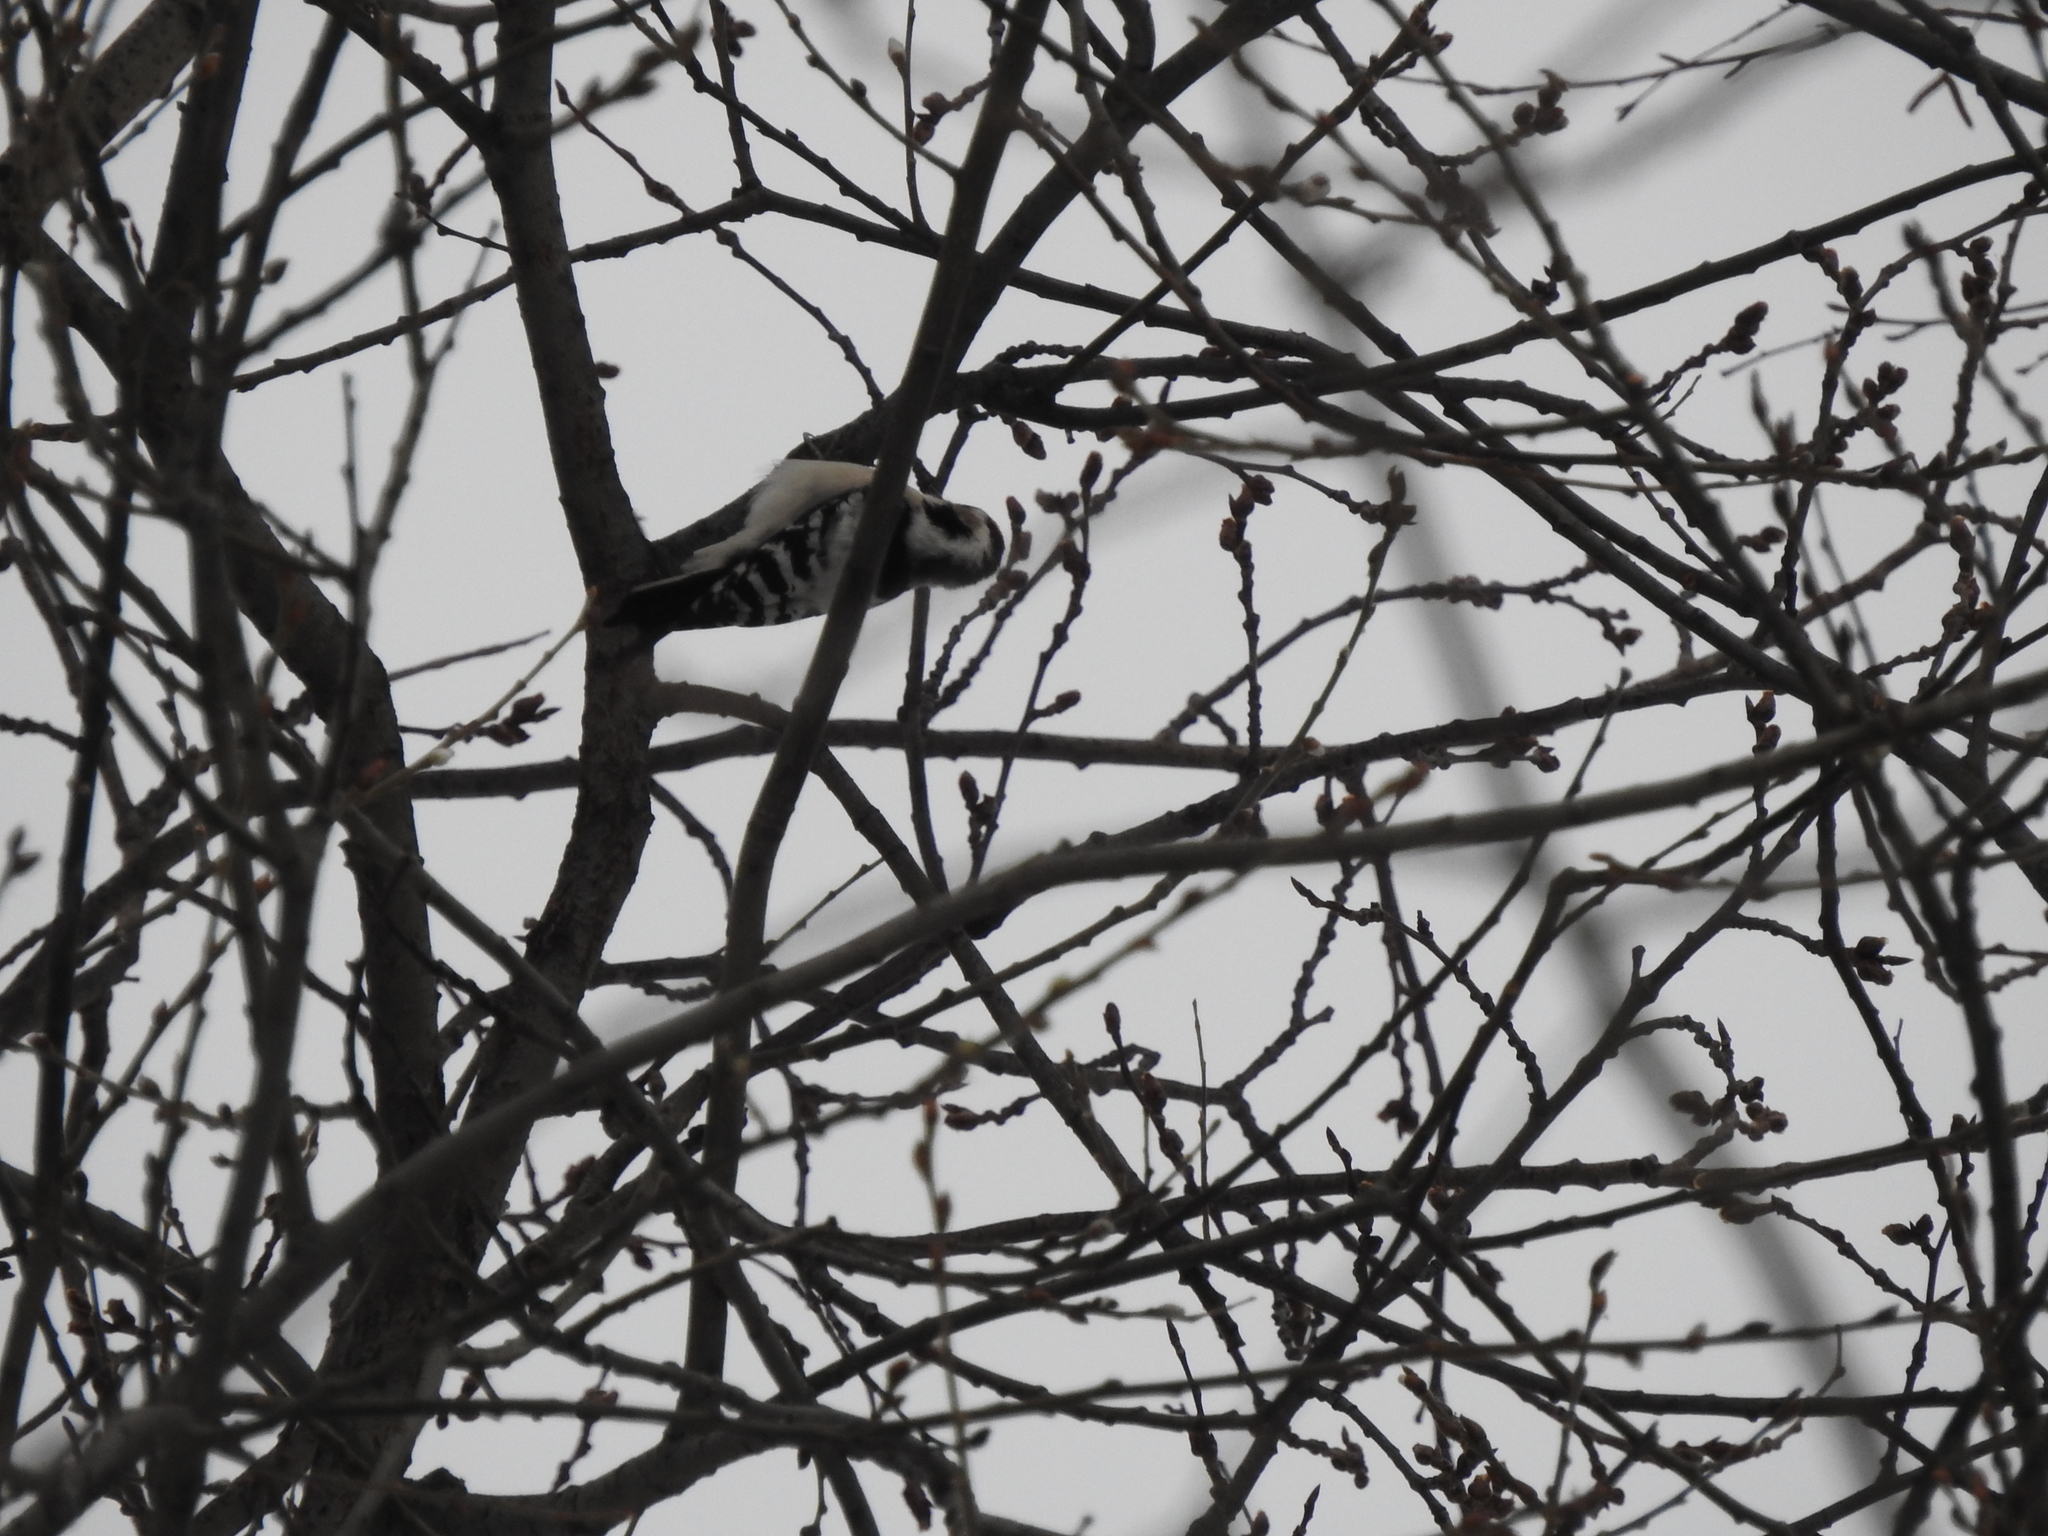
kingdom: Animalia
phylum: Chordata
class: Aves
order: Piciformes
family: Picidae
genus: Dryobates
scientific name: Dryobates minor
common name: Lesser spotted woodpecker
